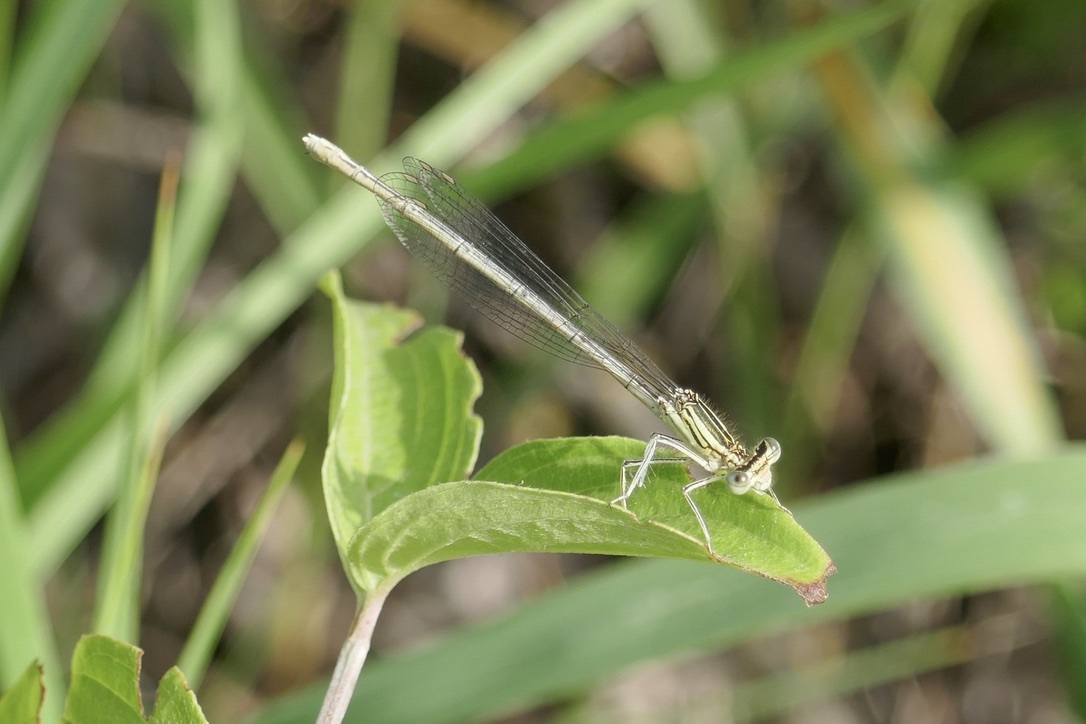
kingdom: Animalia
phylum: Arthropoda
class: Insecta
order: Odonata
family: Platycnemididae
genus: Platycnemis
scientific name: Platycnemis pennipes
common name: White-legged damselfly
